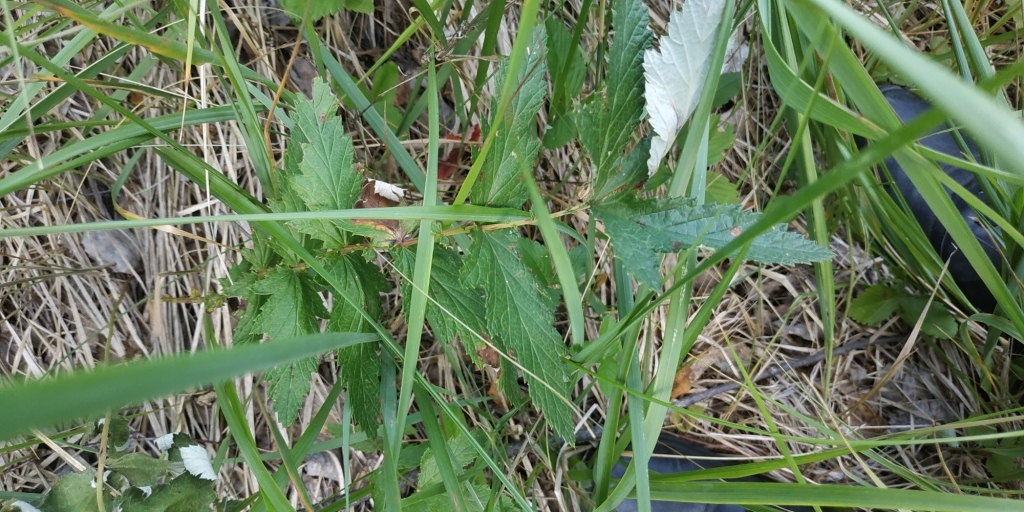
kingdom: Plantae
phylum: Tracheophyta
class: Magnoliopsida
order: Rosales
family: Rosaceae
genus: Filipendula
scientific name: Filipendula ulmaria
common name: Meadowsweet
